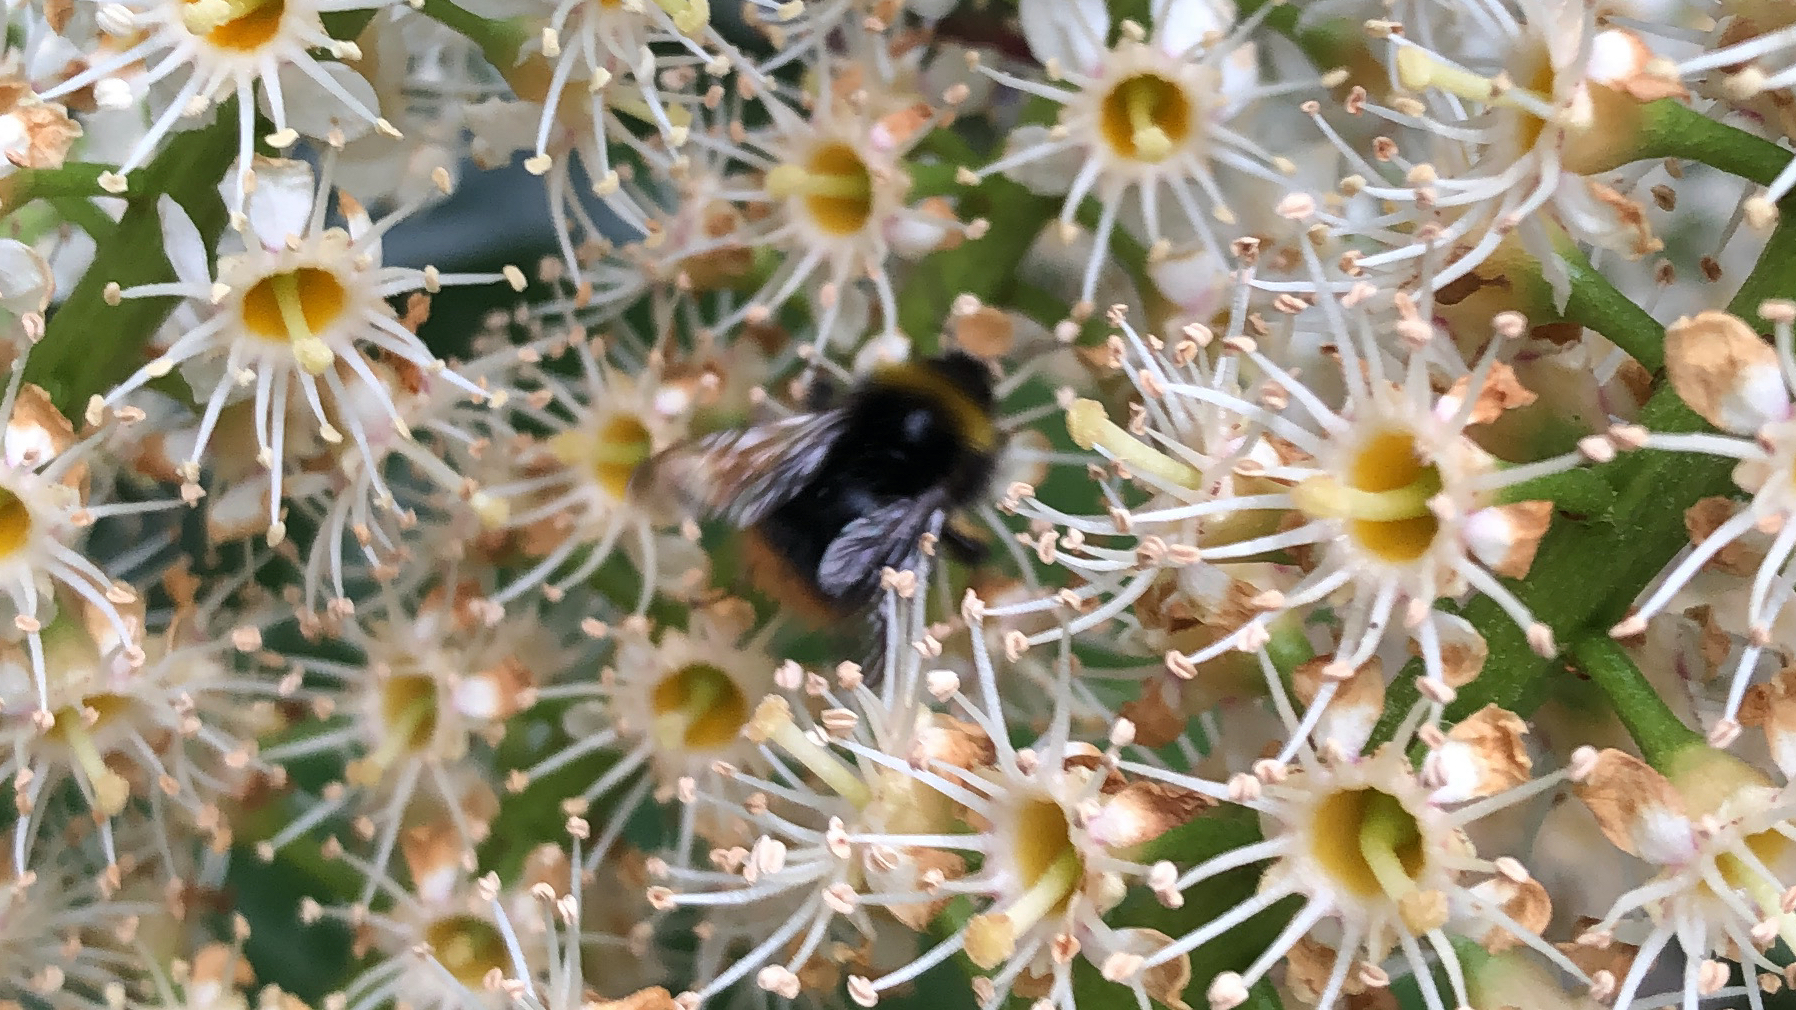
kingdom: Animalia
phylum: Arthropoda
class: Insecta
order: Hymenoptera
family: Apidae
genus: Bombus
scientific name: Bombus pratorum
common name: Early humble-bee
